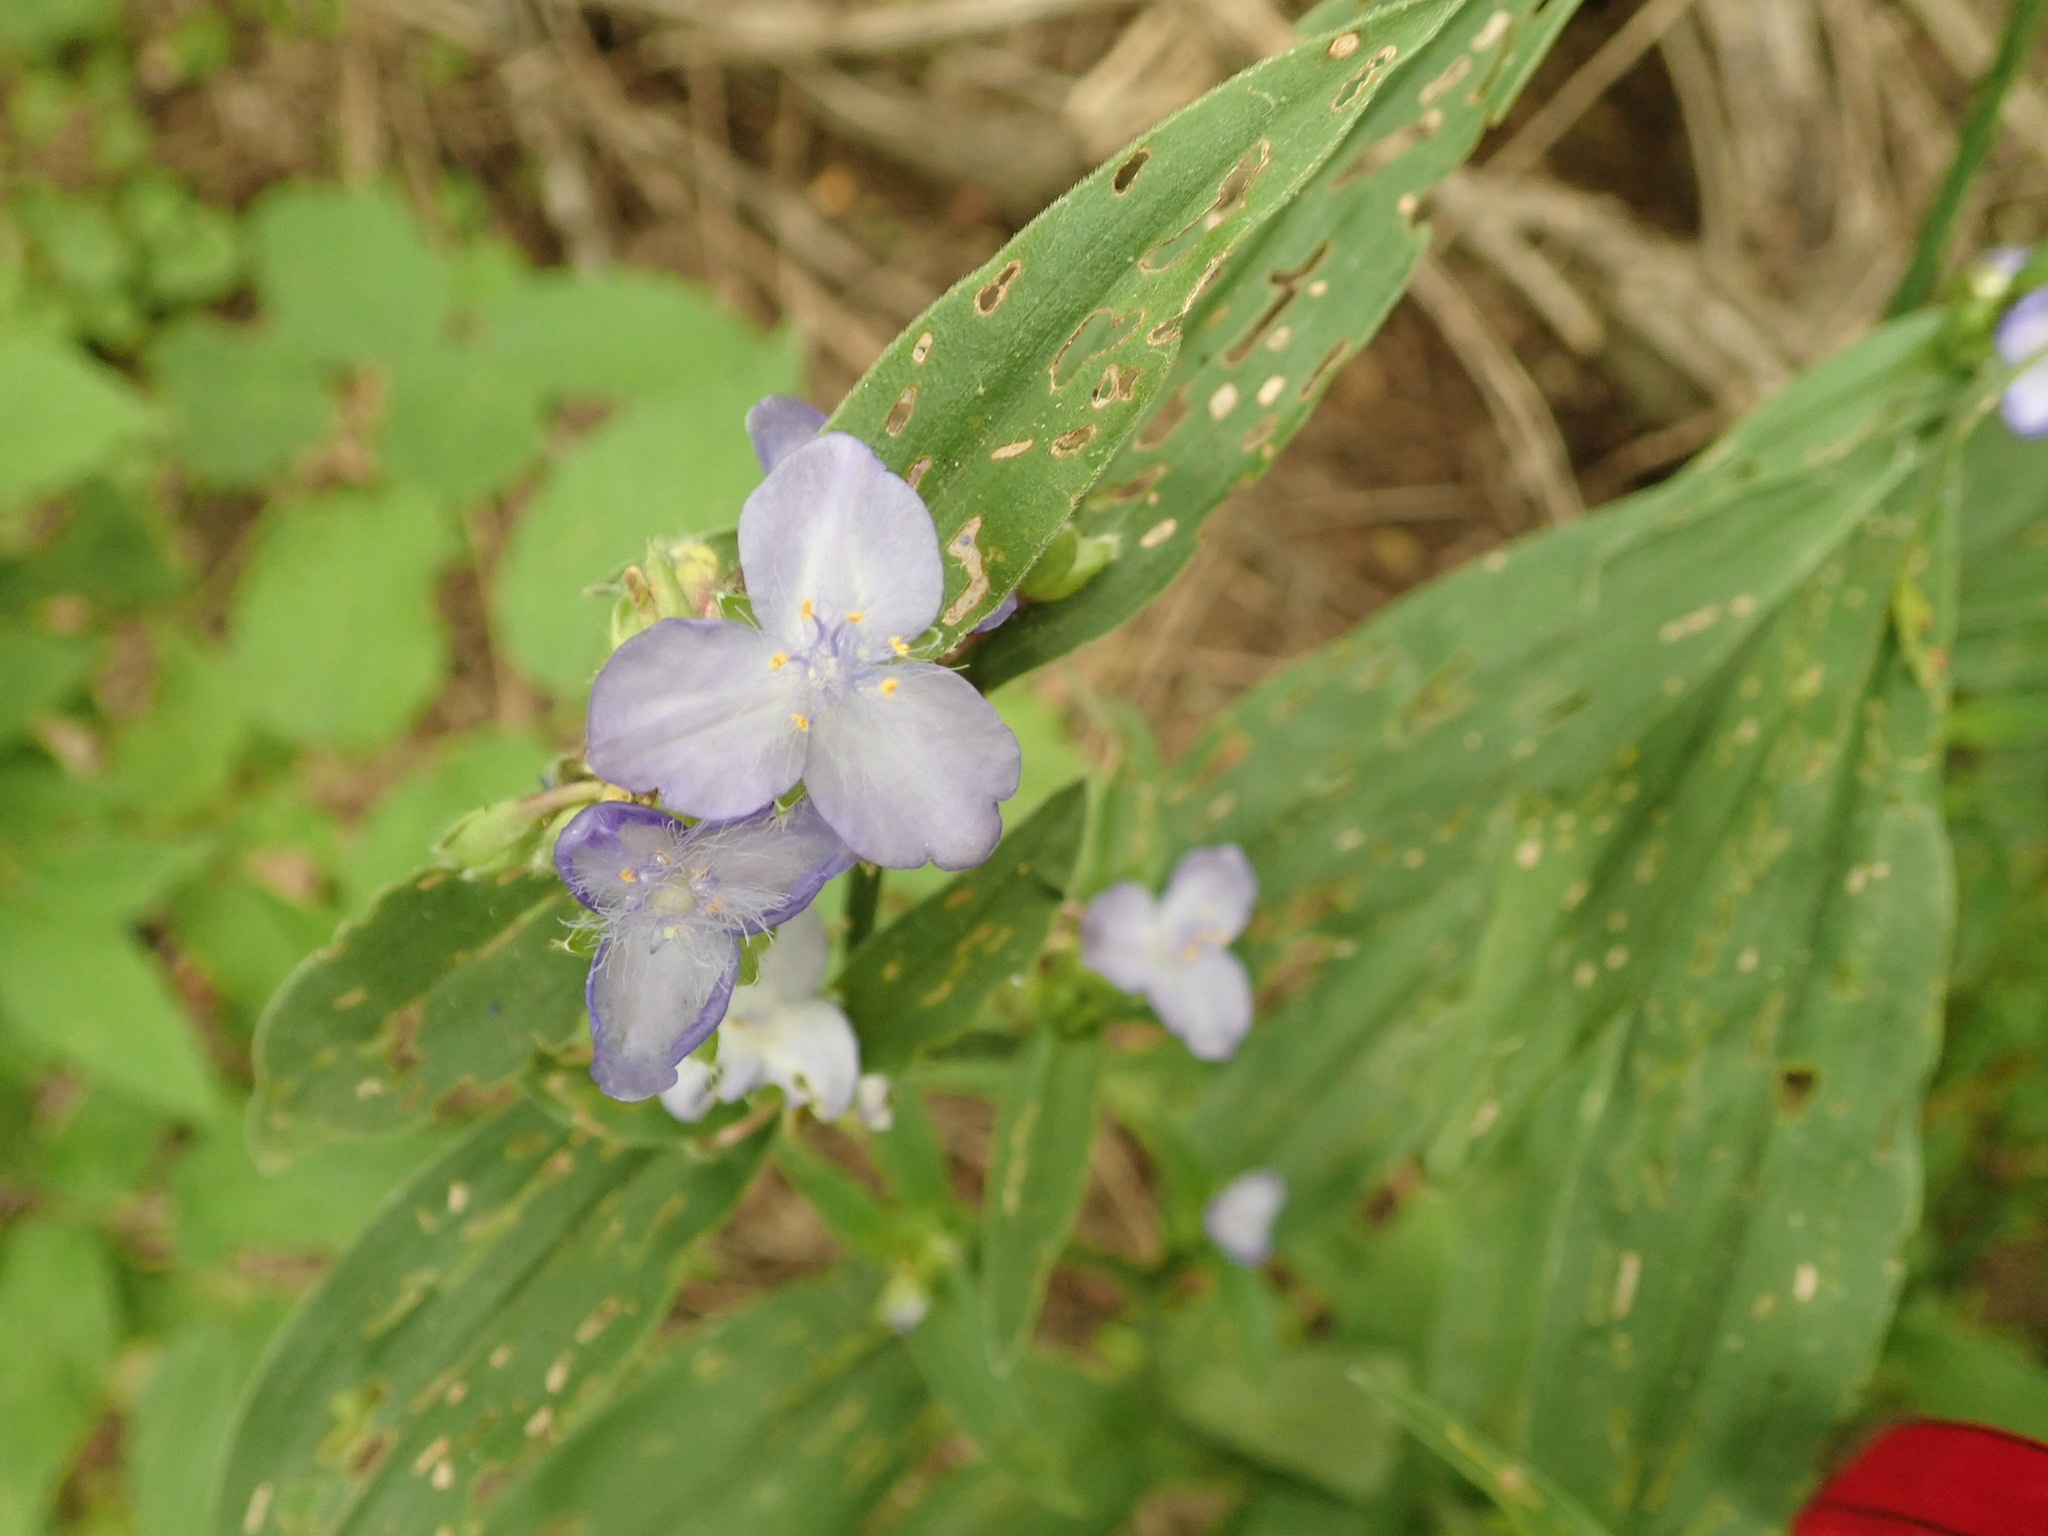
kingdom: Plantae
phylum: Tracheophyta
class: Liliopsida
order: Commelinales
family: Commelinaceae
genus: Tradescantia
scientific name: Tradescantia subaspera
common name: Wide-leaf spiderwort
